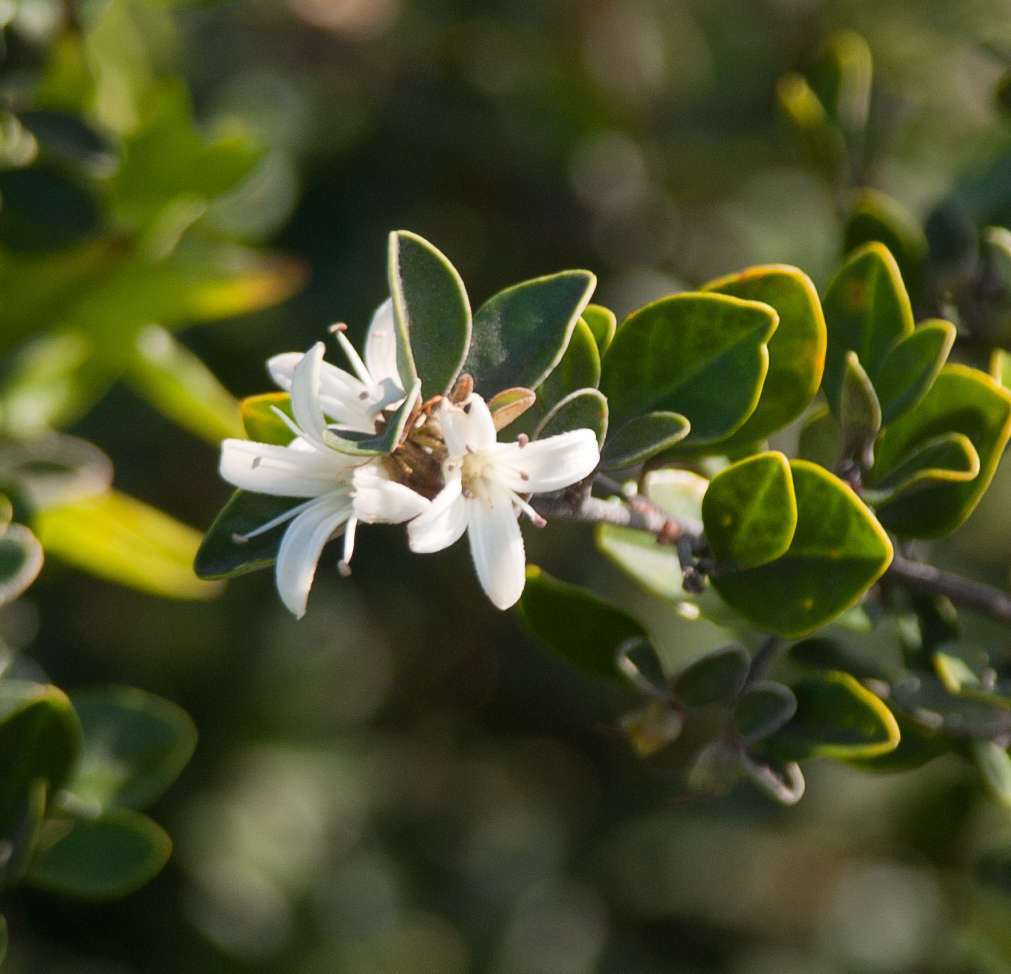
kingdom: Plantae
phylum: Tracheophyta
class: Magnoliopsida
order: Sapindales
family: Rutaceae
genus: Correa
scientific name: Correa alba
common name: White correa
